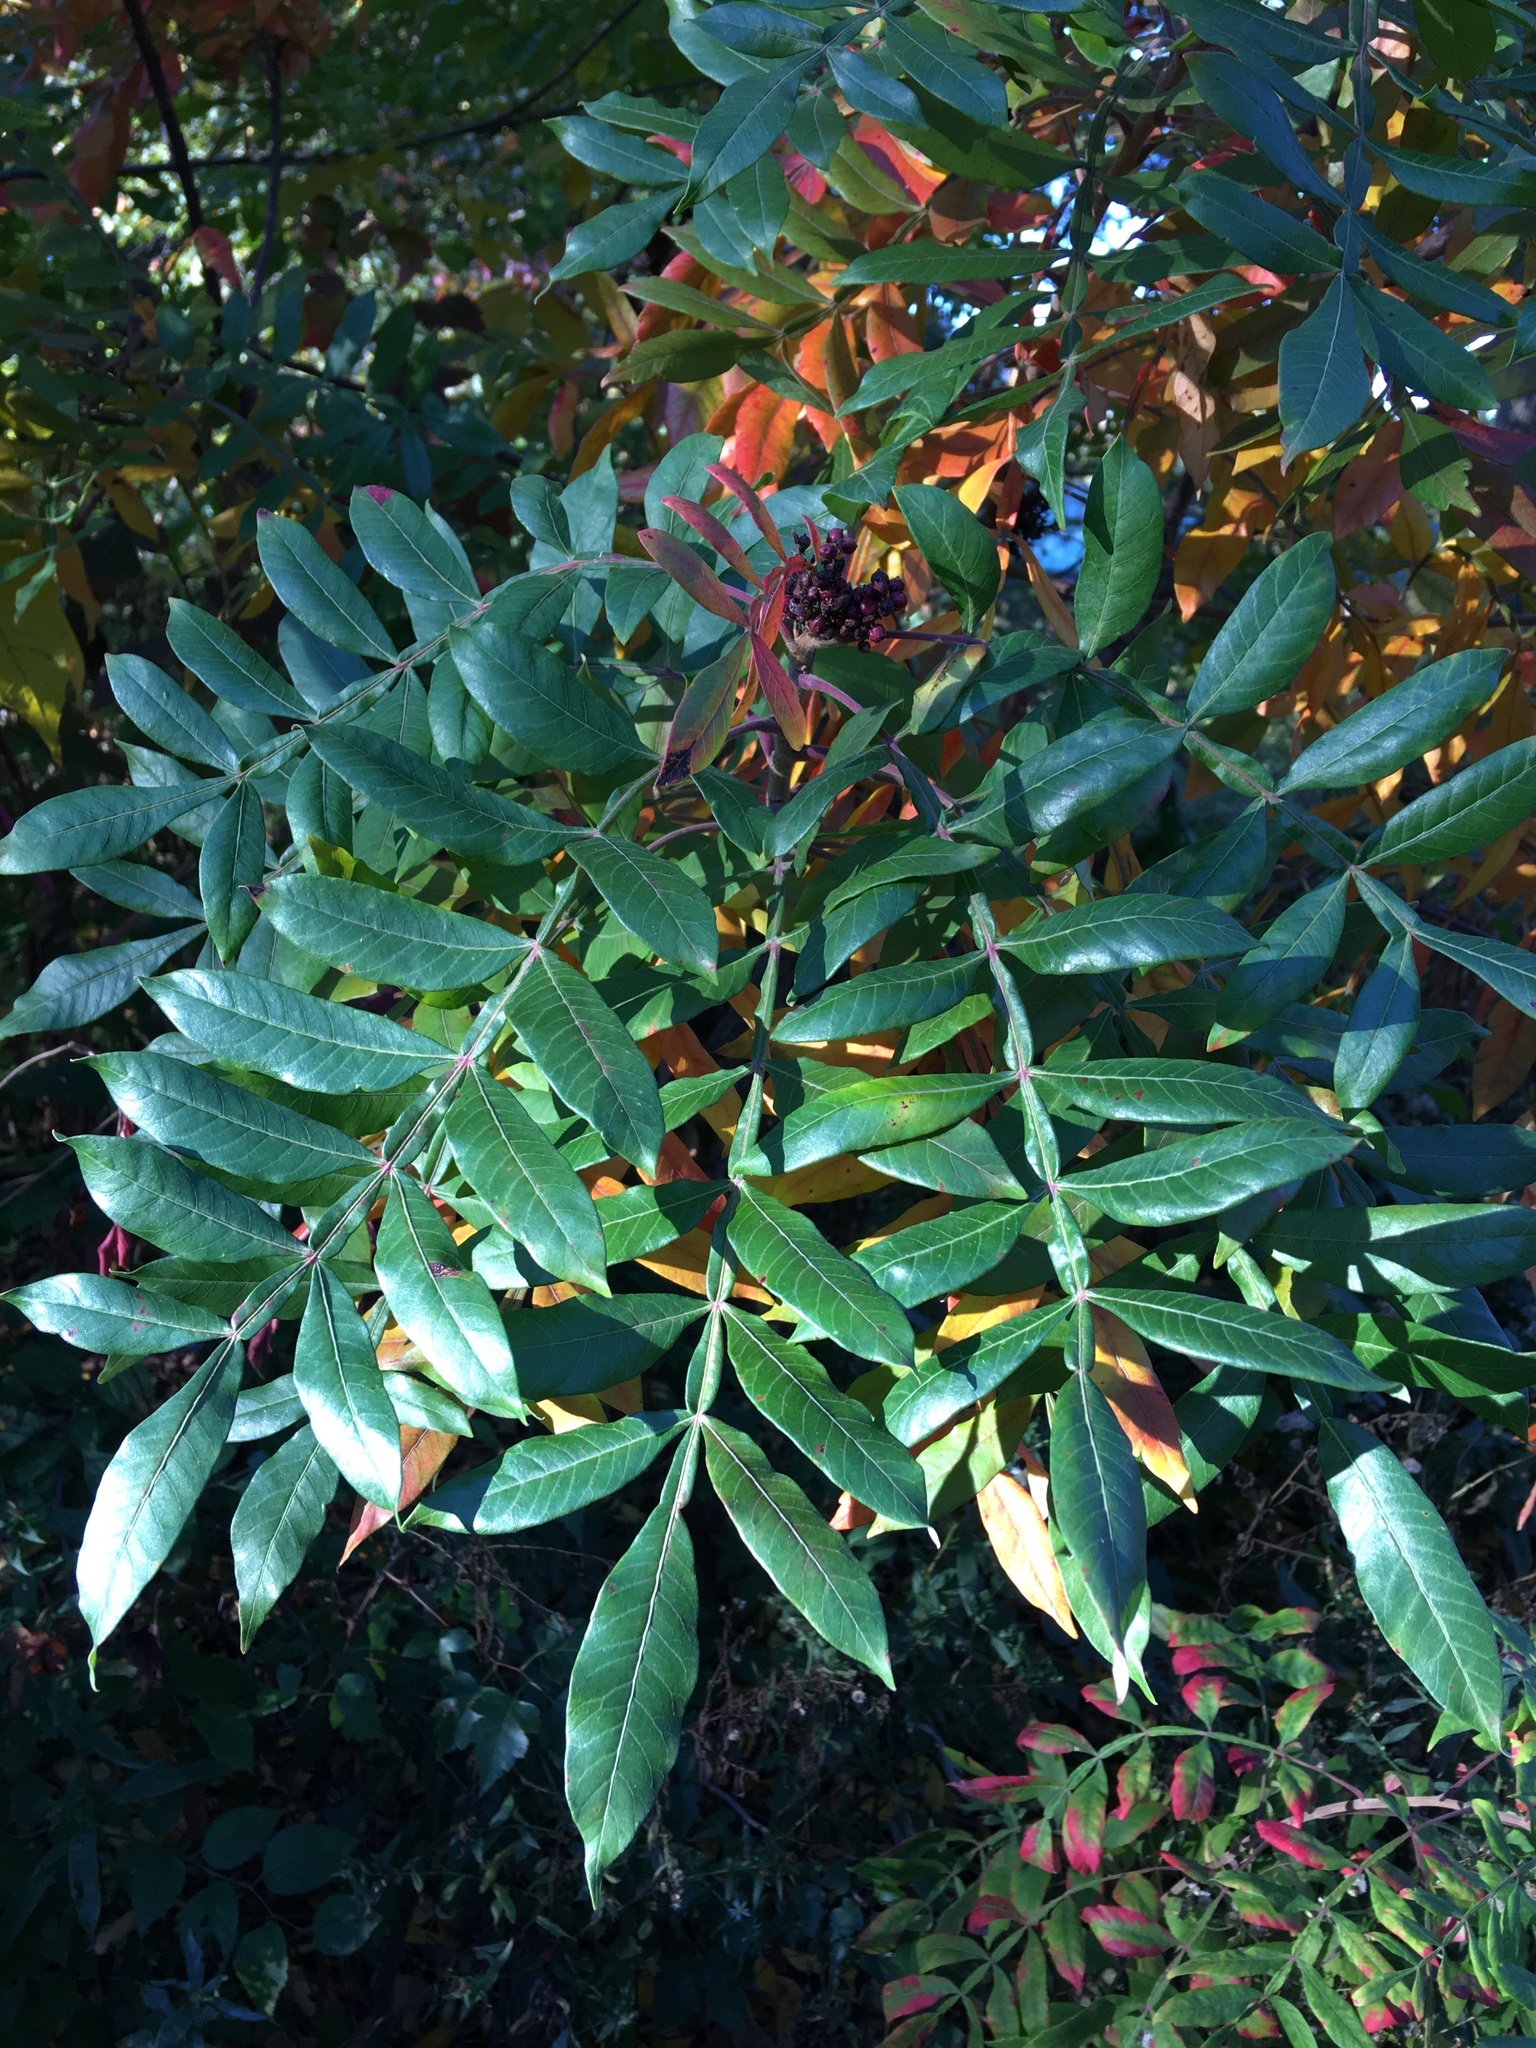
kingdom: Plantae
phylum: Tracheophyta
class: Magnoliopsida
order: Sapindales
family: Anacardiaceae
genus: Rhus
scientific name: Rhus copallina
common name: Shining sumac
